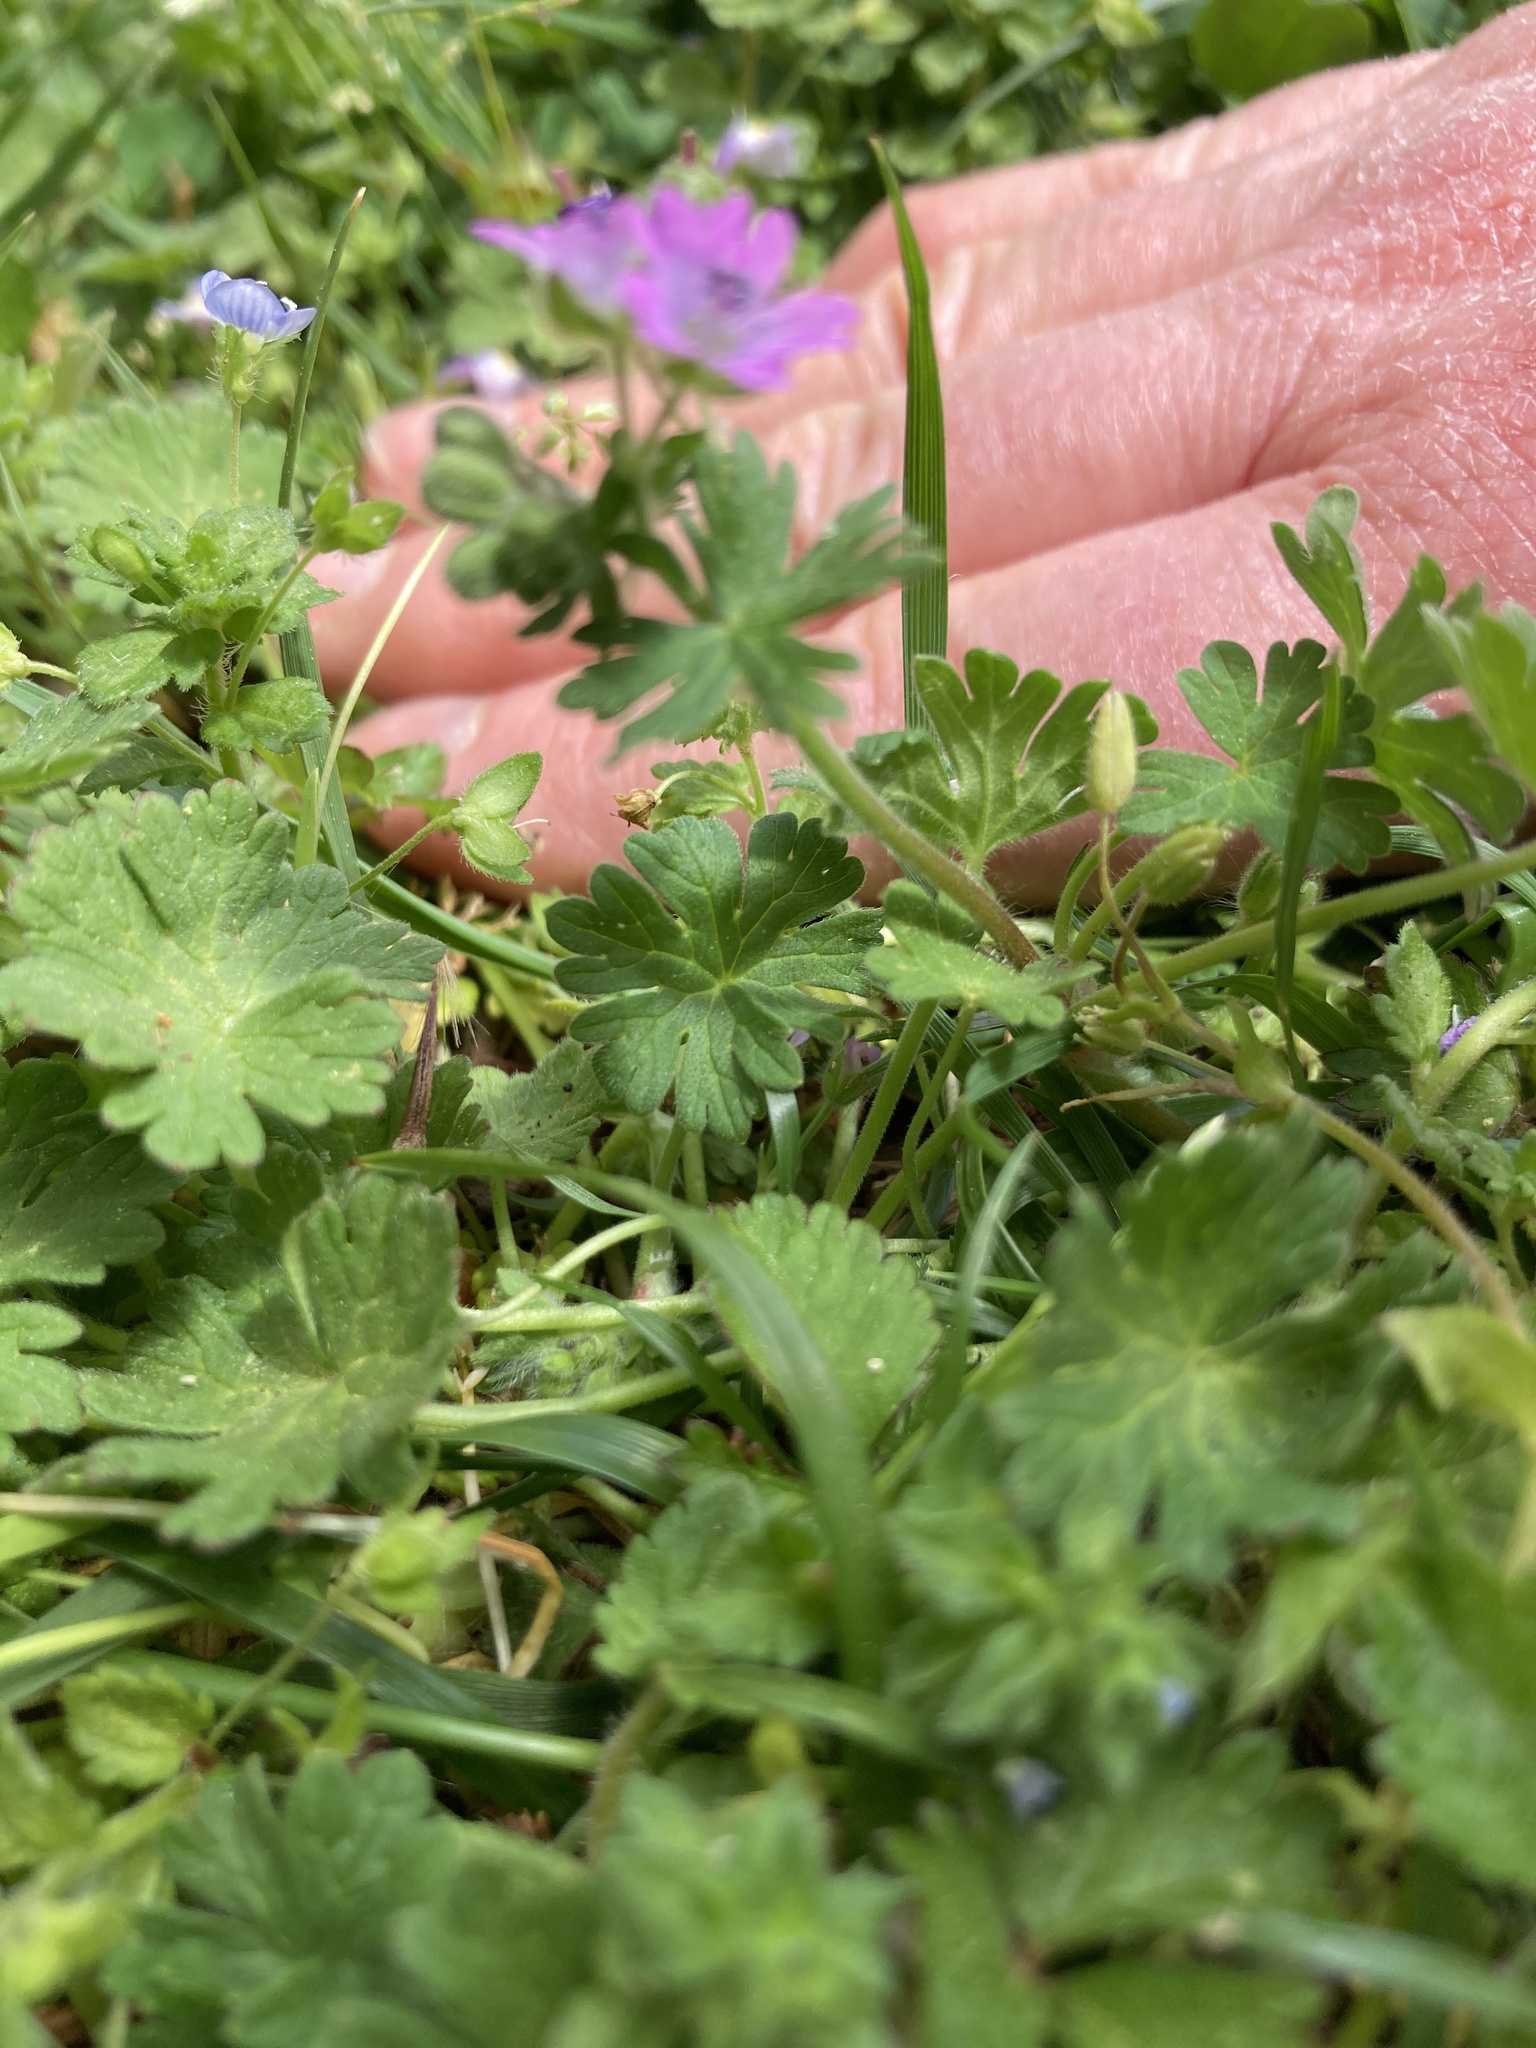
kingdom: Plantae
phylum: Tracheophyta
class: Magnoliopsida
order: Geraniales
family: Geraniaceae
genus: Geranium
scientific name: Geranium molle
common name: Dove's-foot crane's-bill
